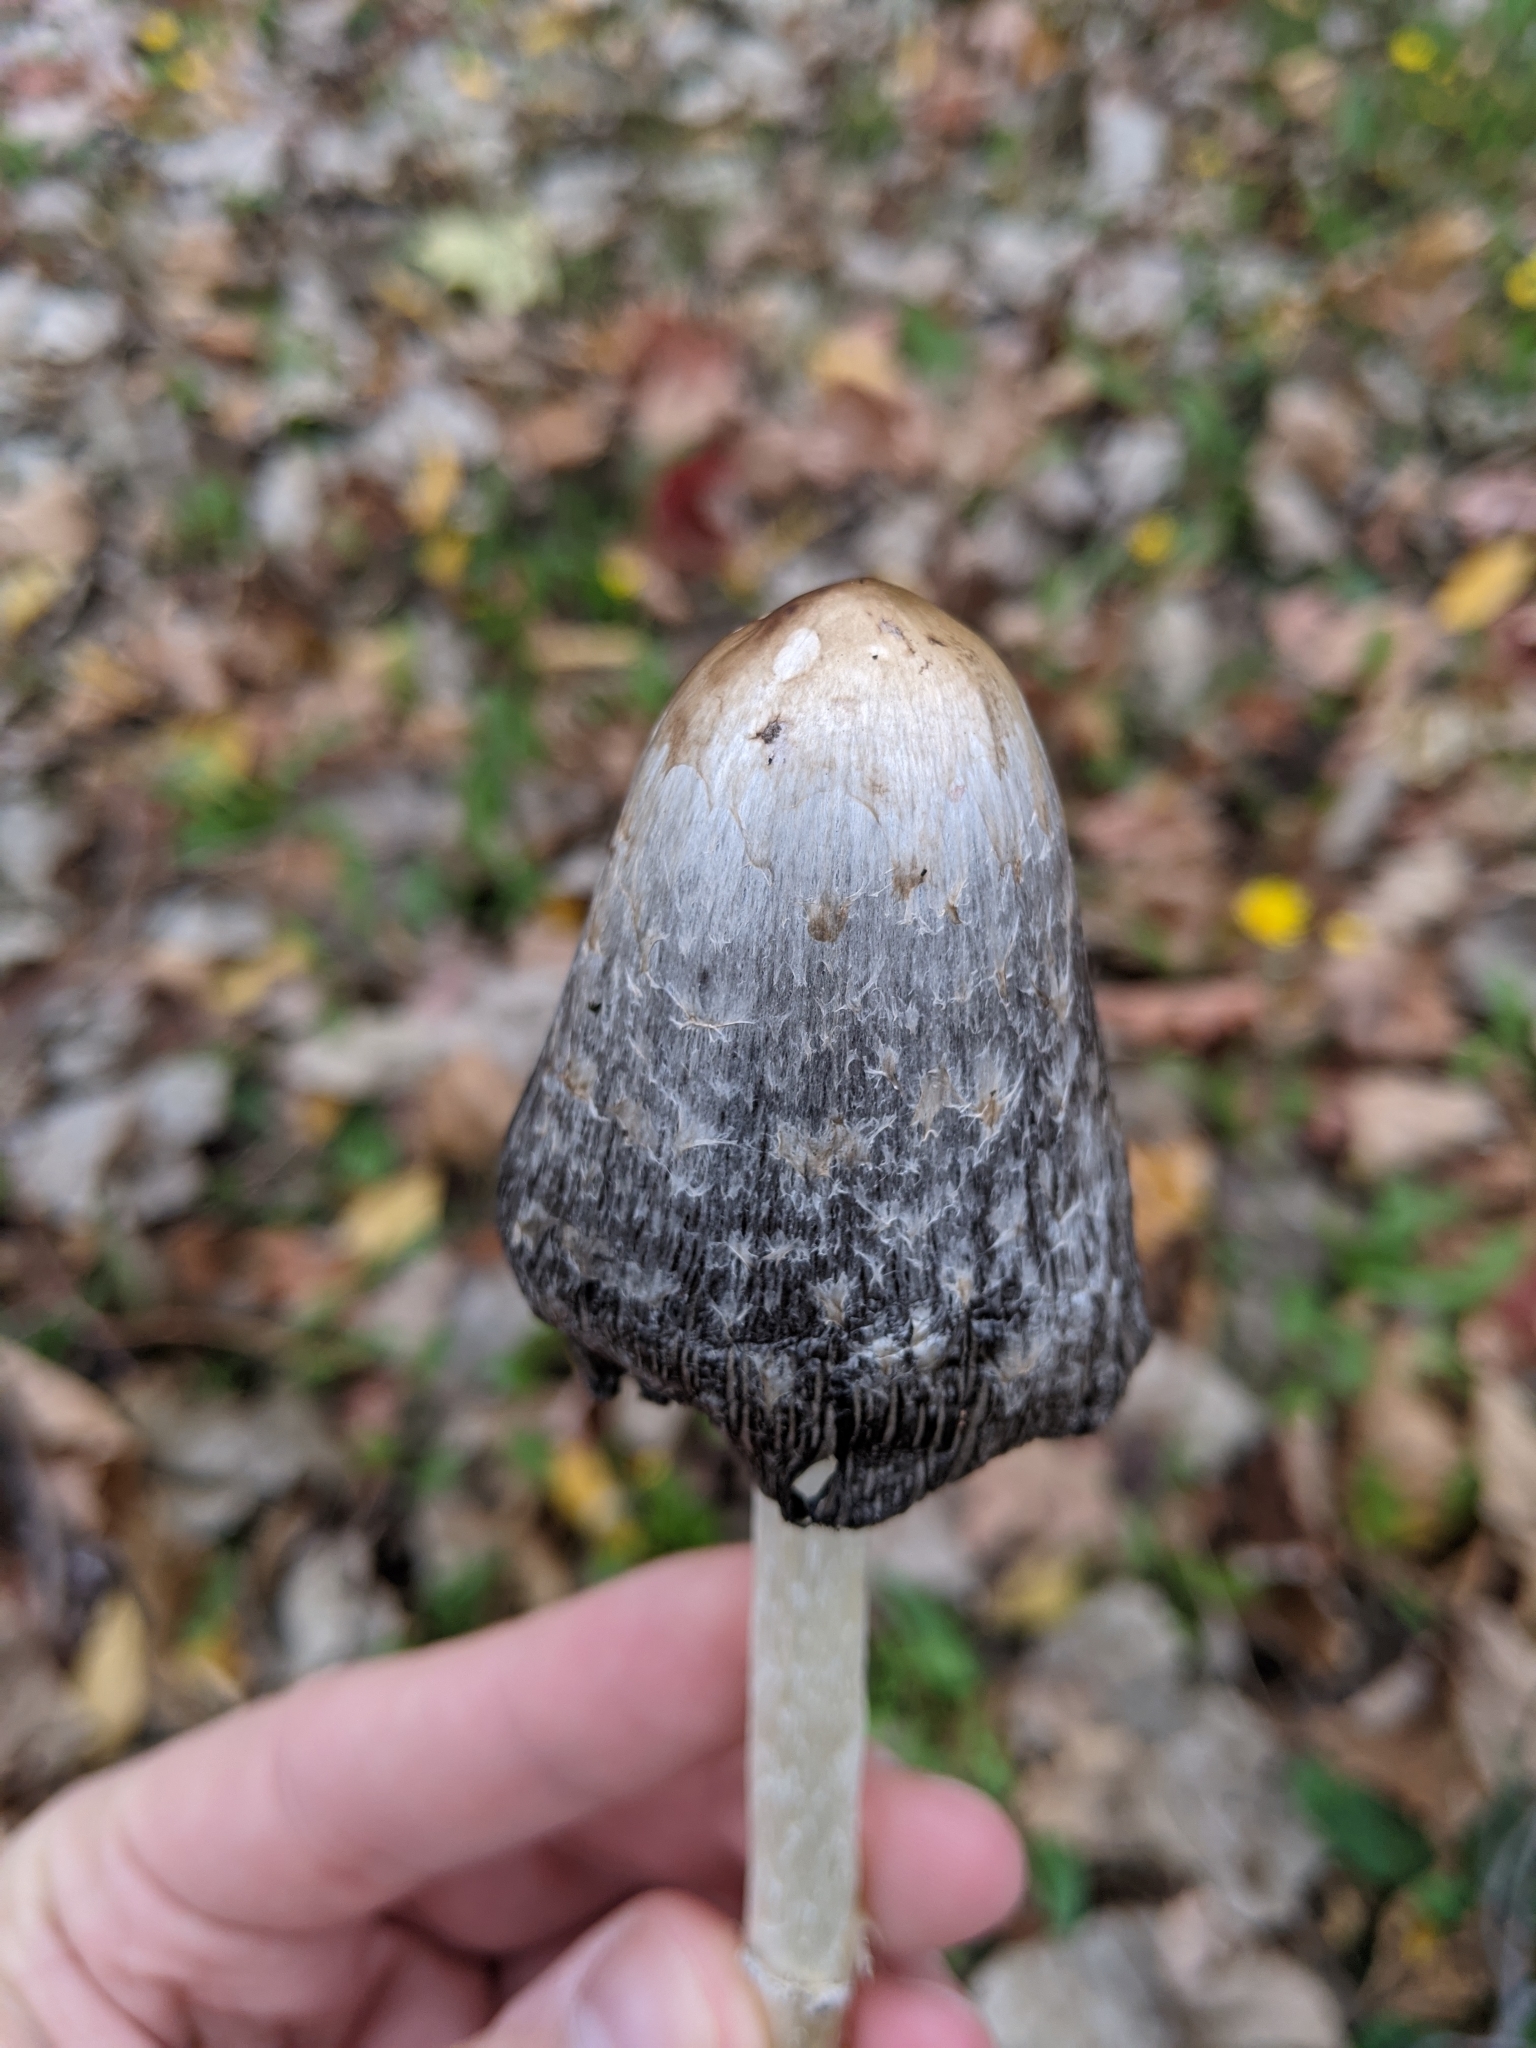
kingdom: Fungi
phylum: Basidiomycota
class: Agaricomycetes
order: Agaricales
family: Agaricaceae
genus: Coprinus
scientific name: Coprinus comatus
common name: Lawyer's wig
